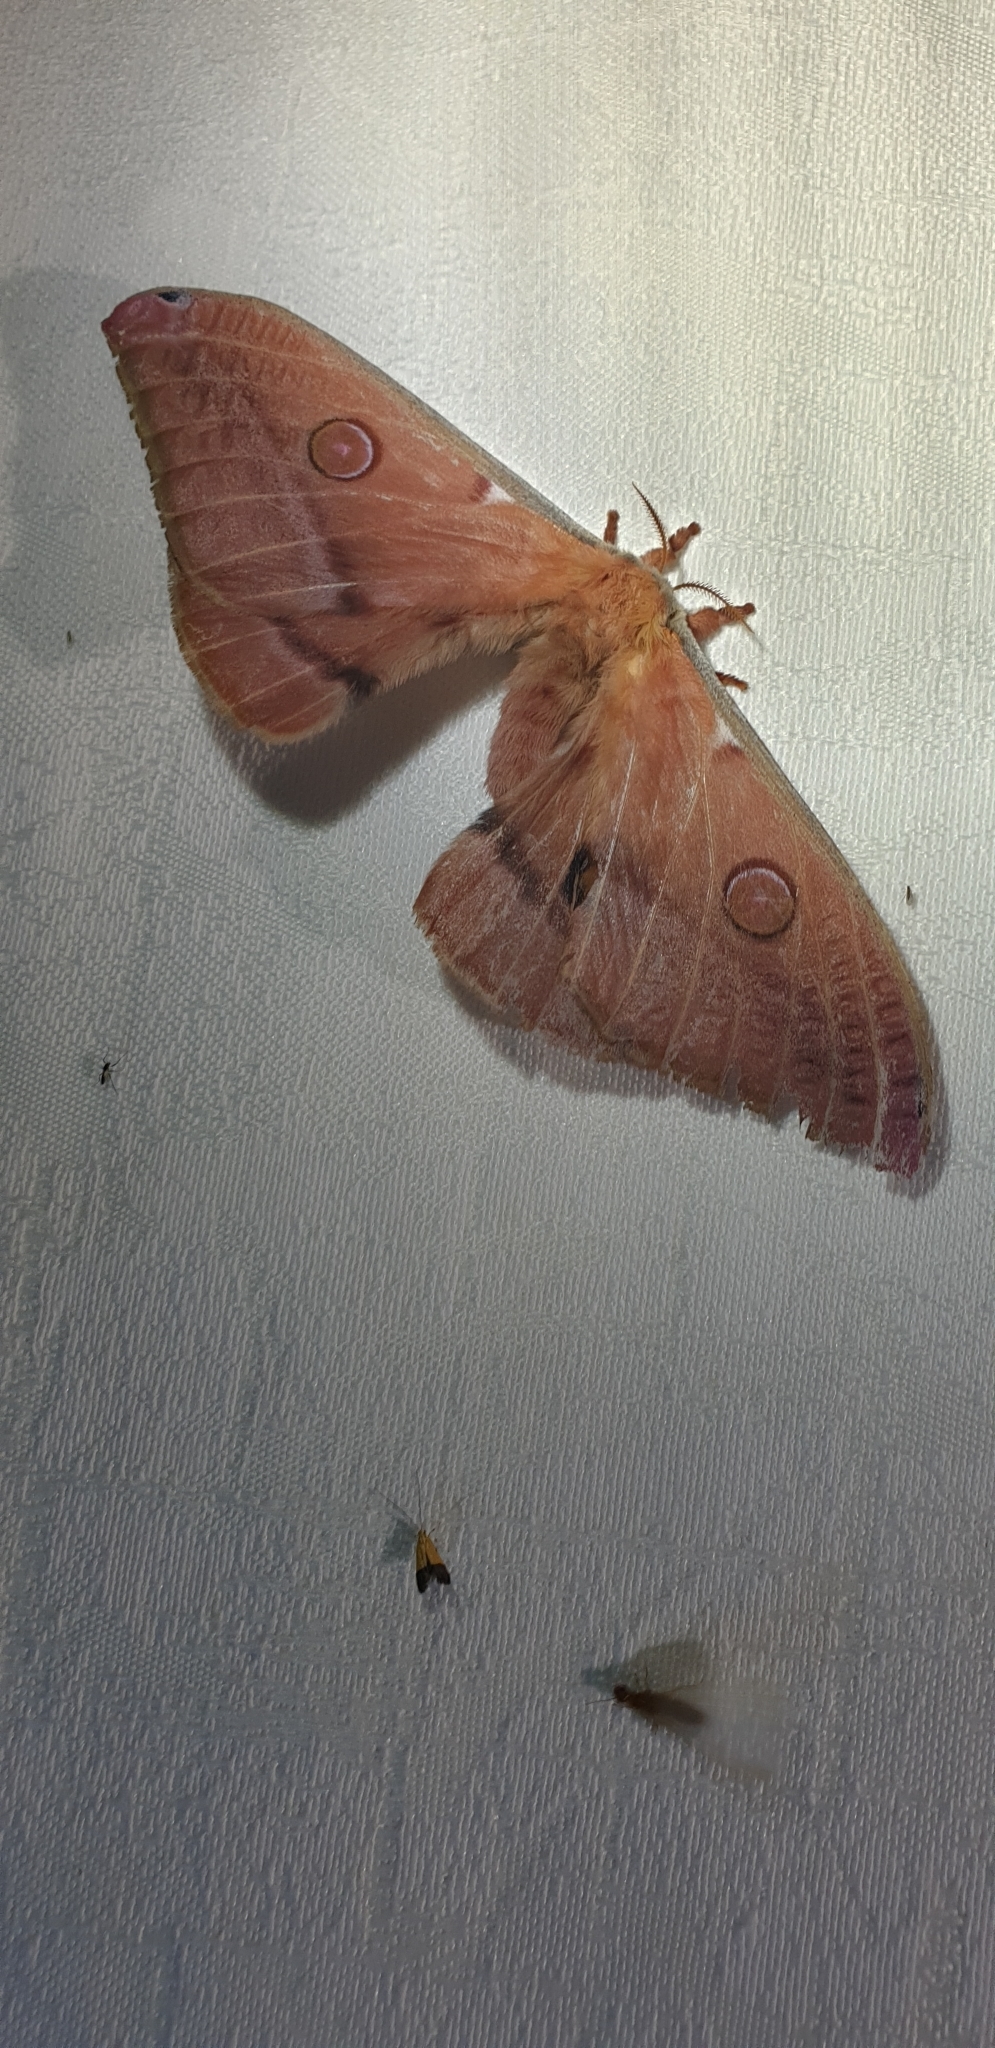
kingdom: Animalia
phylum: Arthropoda
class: Insecta
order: Lepidoptera
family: Saturniidae
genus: Opodiphthera
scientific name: Opodiphthera
